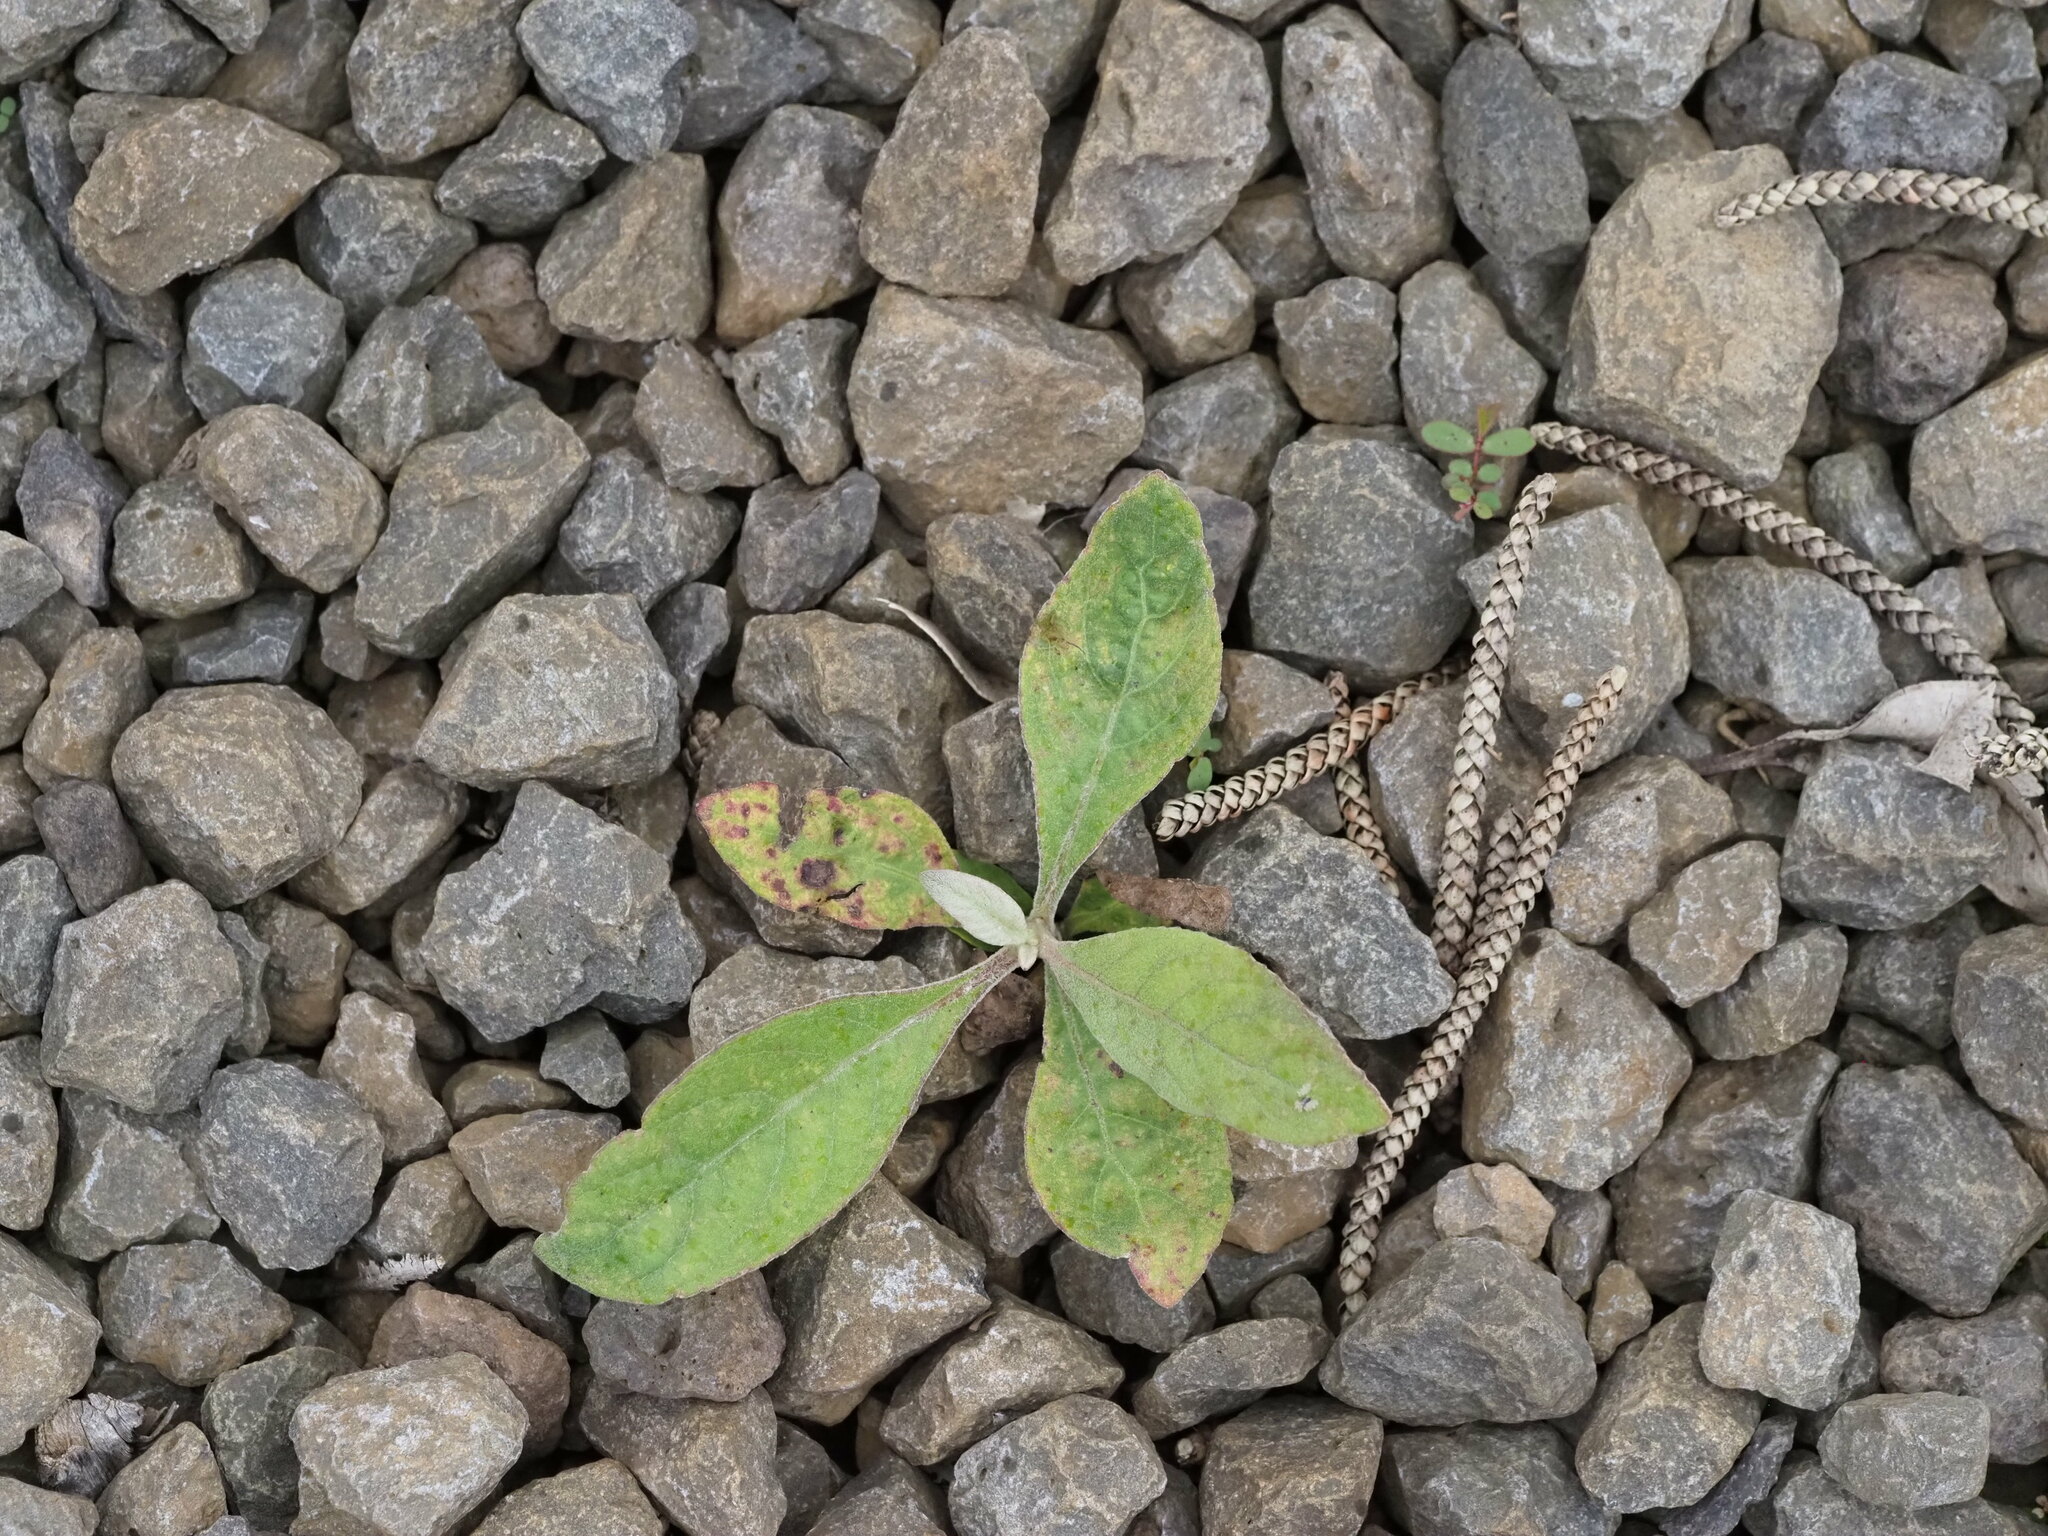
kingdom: Plantae
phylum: Tracheophyta
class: Magnoliopsida
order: Asterales
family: Asteraceae
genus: Pluchea
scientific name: Pluchea carolinensis
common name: Marsh fleabane
